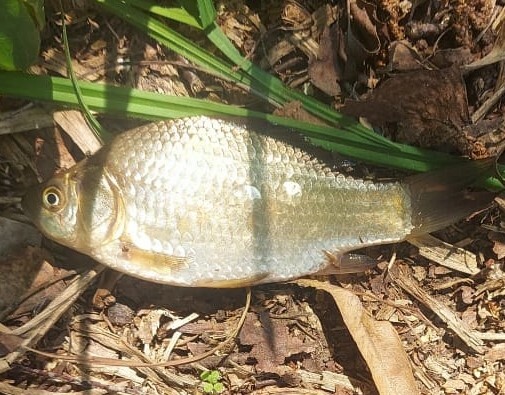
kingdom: Animalia
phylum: Chordata
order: Cypriniformes
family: Cyprinidae
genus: Carassius
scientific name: Carassius gibelio
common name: Prussian carp
